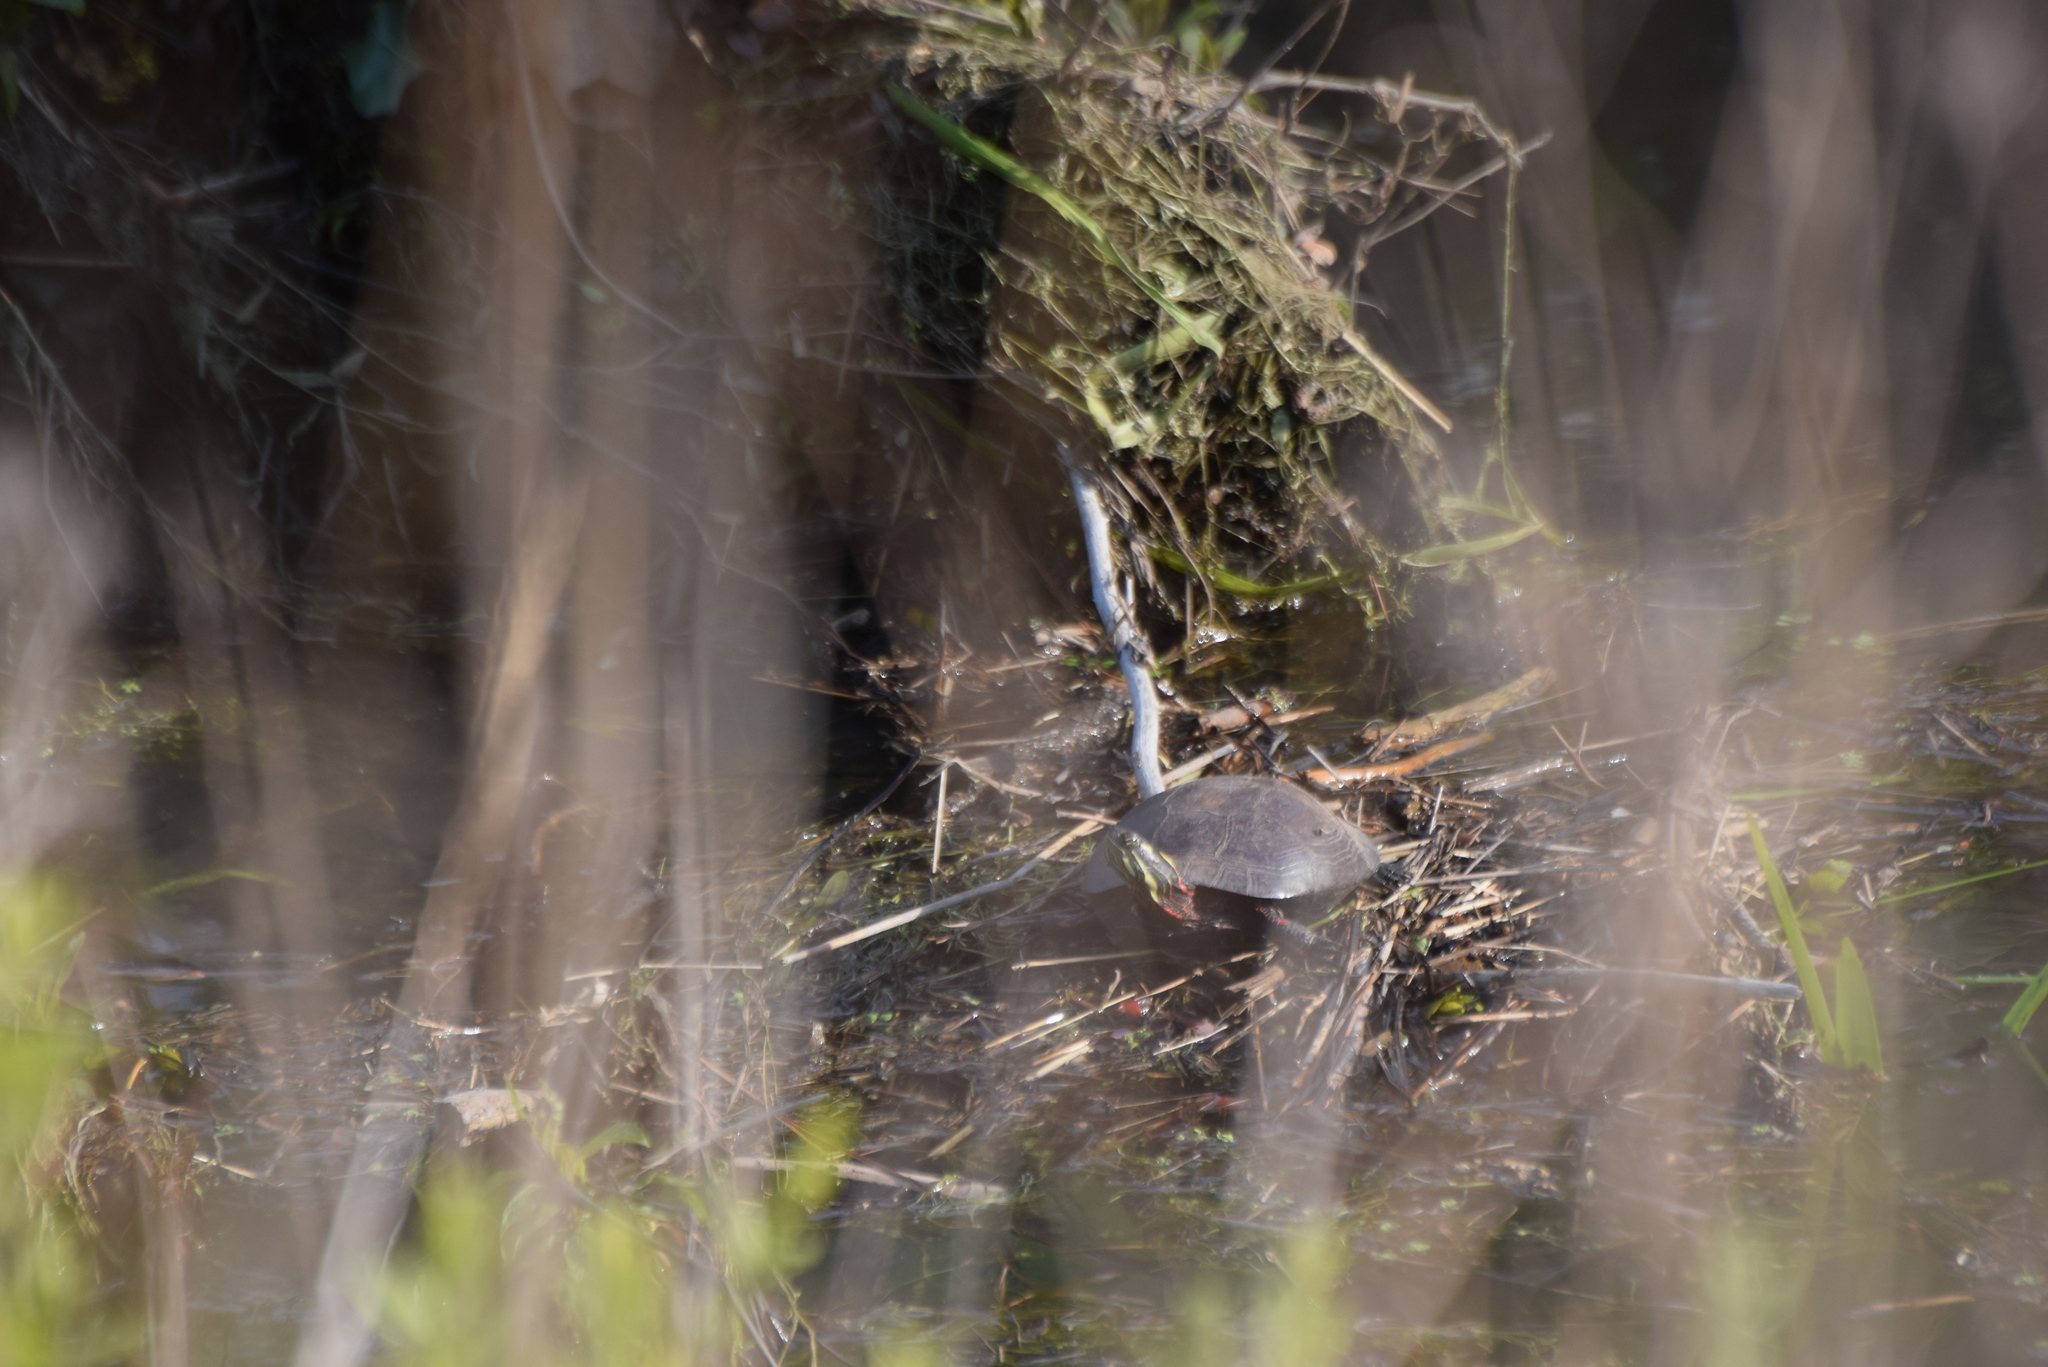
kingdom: Animalia
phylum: Chordata
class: Testudines
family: Emydidae
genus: Chrysemys
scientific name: Chrysemys picta
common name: Painted turtle
